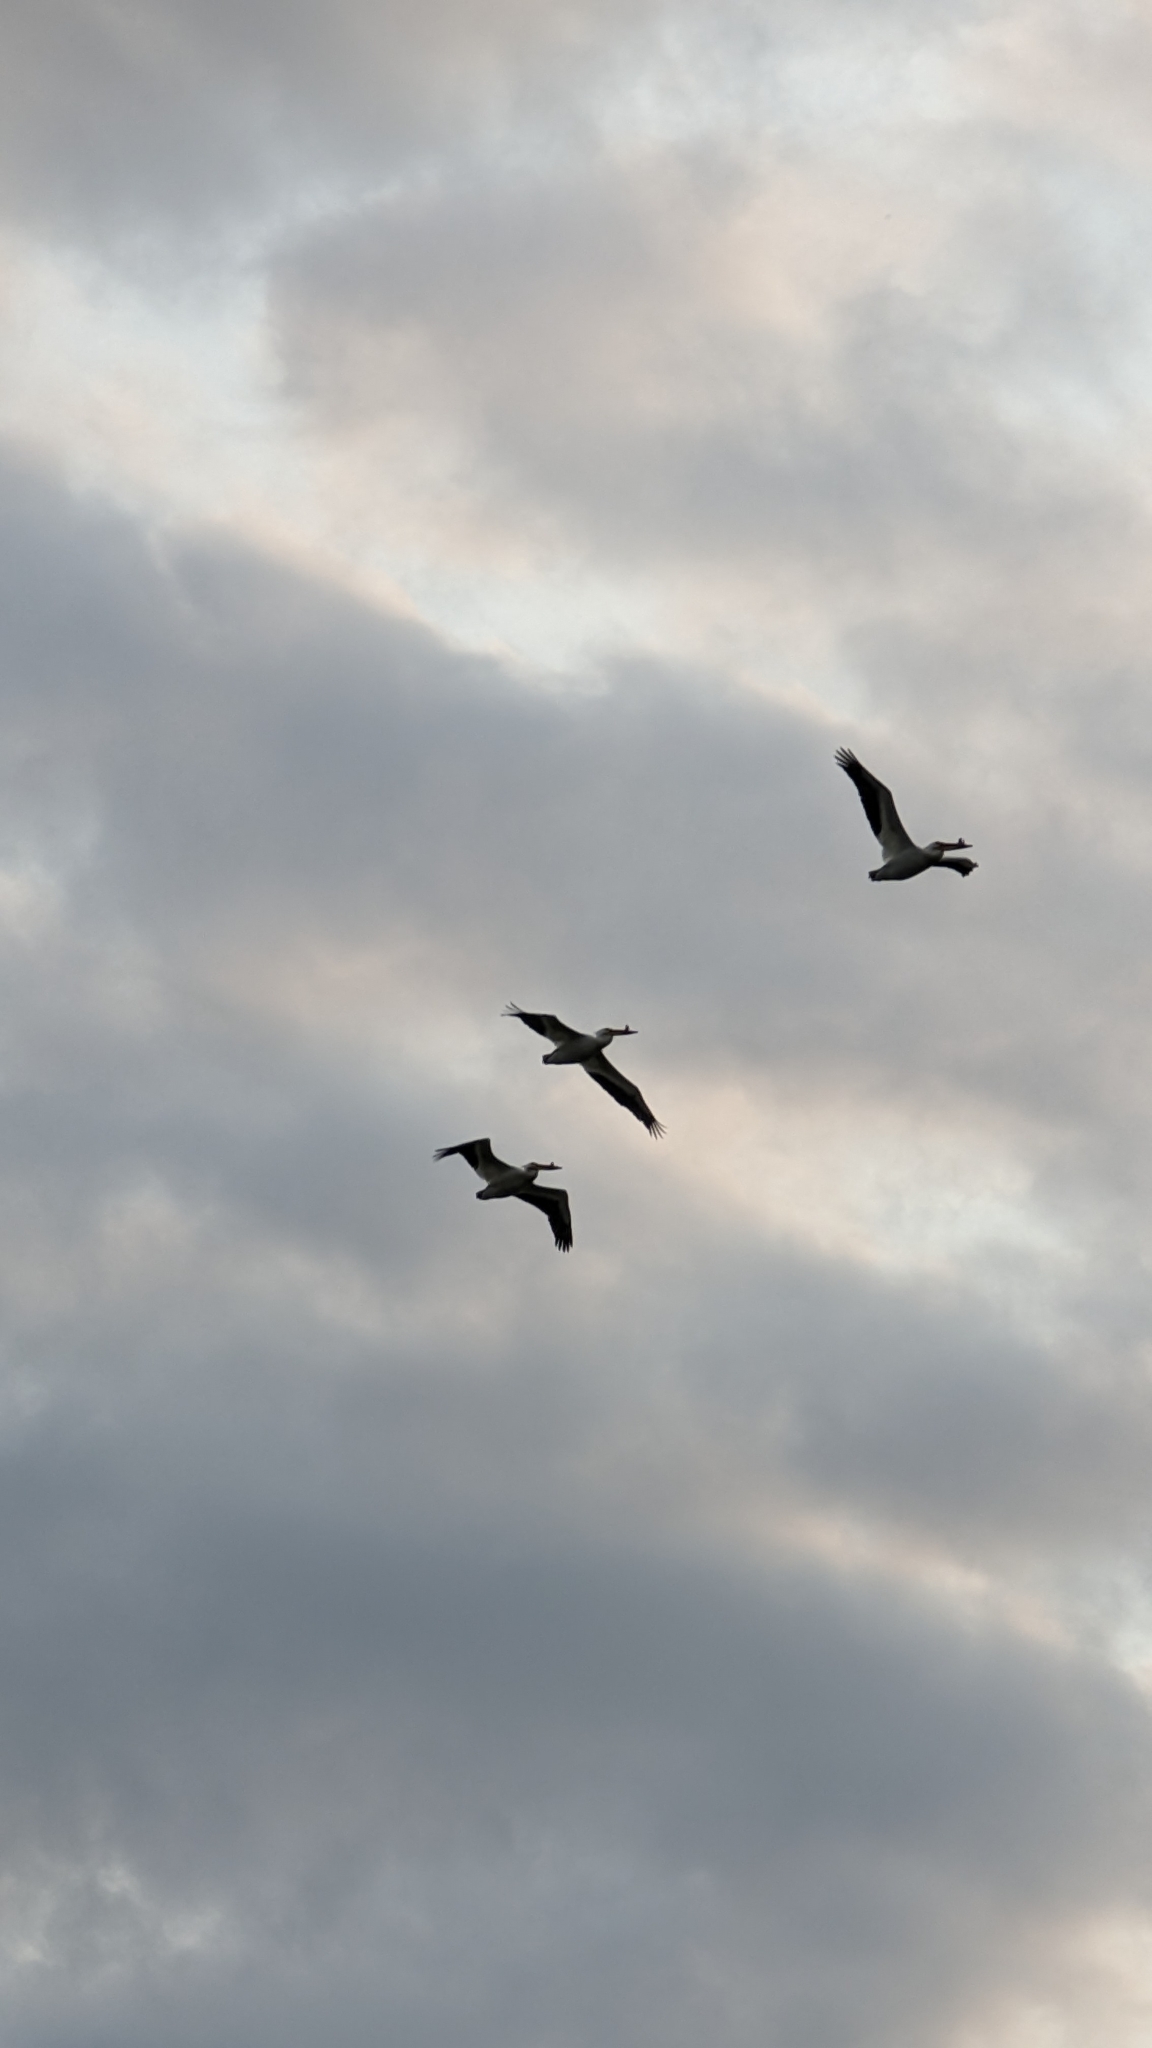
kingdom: Animalia
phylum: Chordata
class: Aves
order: Pelecaniformes
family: Pelecanidae
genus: Pelecanus
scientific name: Pelecanus erythrorhynchos
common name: American white pelican
